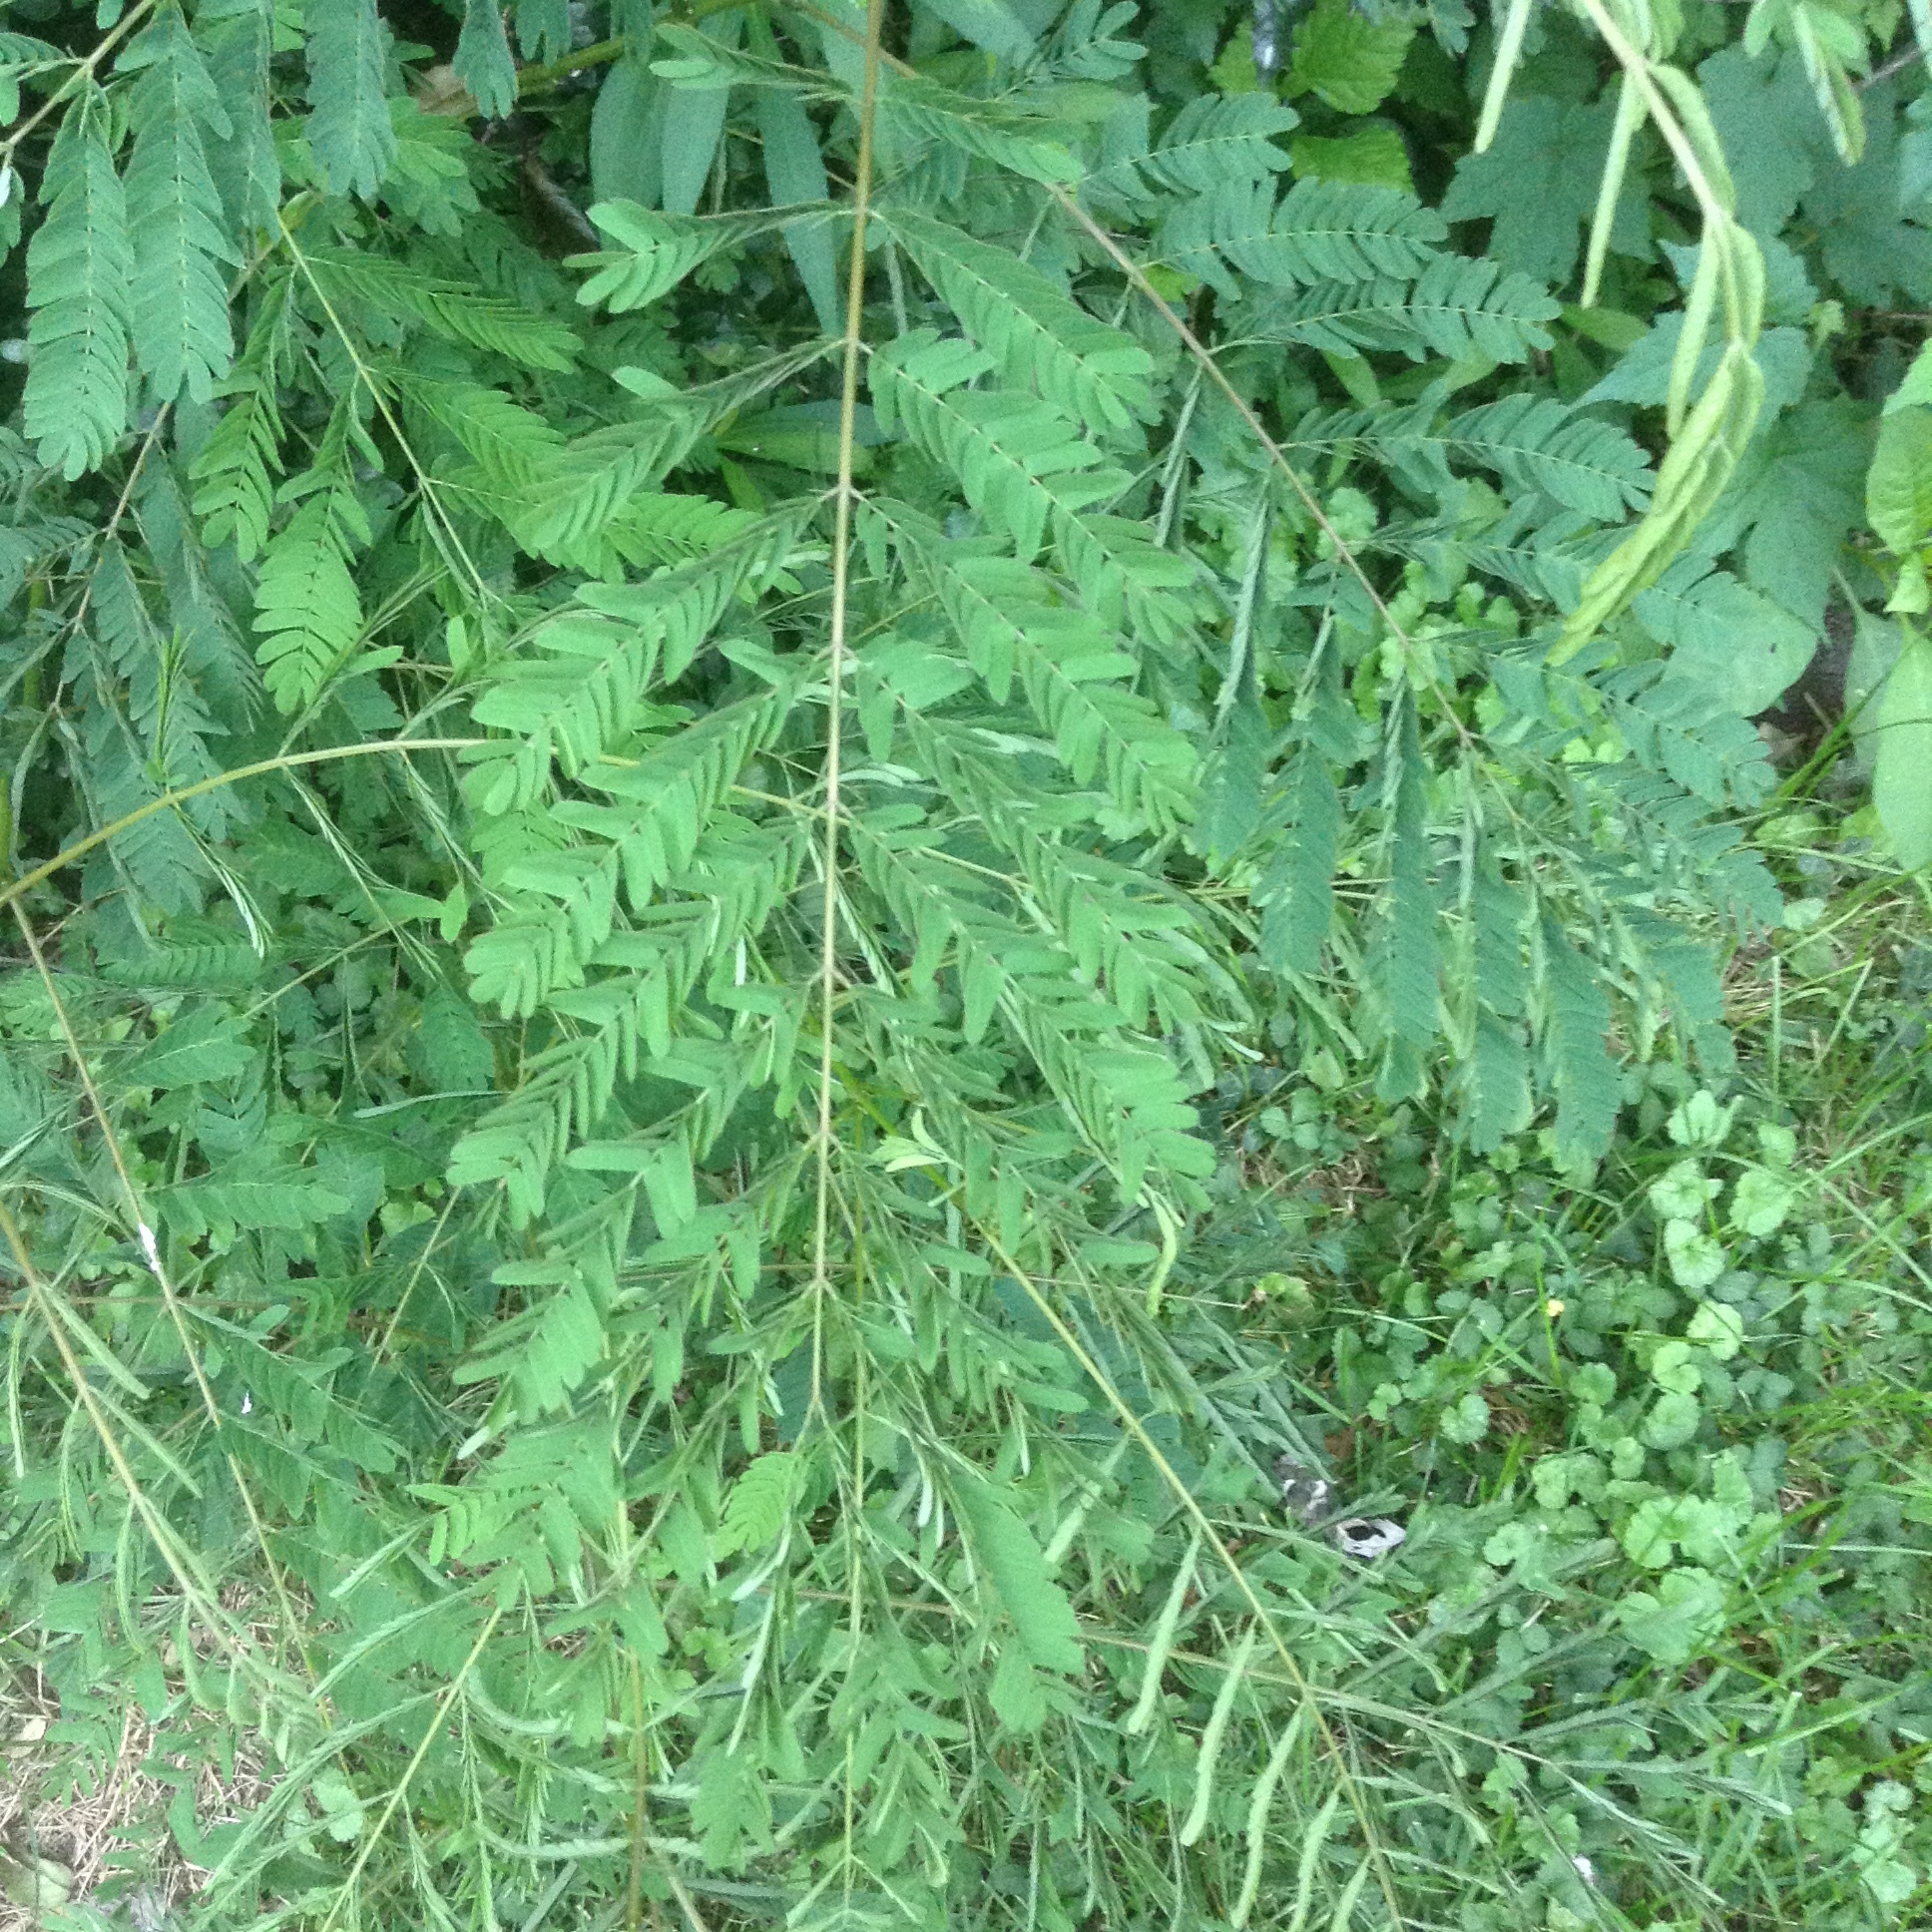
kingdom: Plantae
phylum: Tracheophyta
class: Magnoliopsida
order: Fabales
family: Fabaceae
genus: Albizia
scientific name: Albizia julibrissin
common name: Silktree
